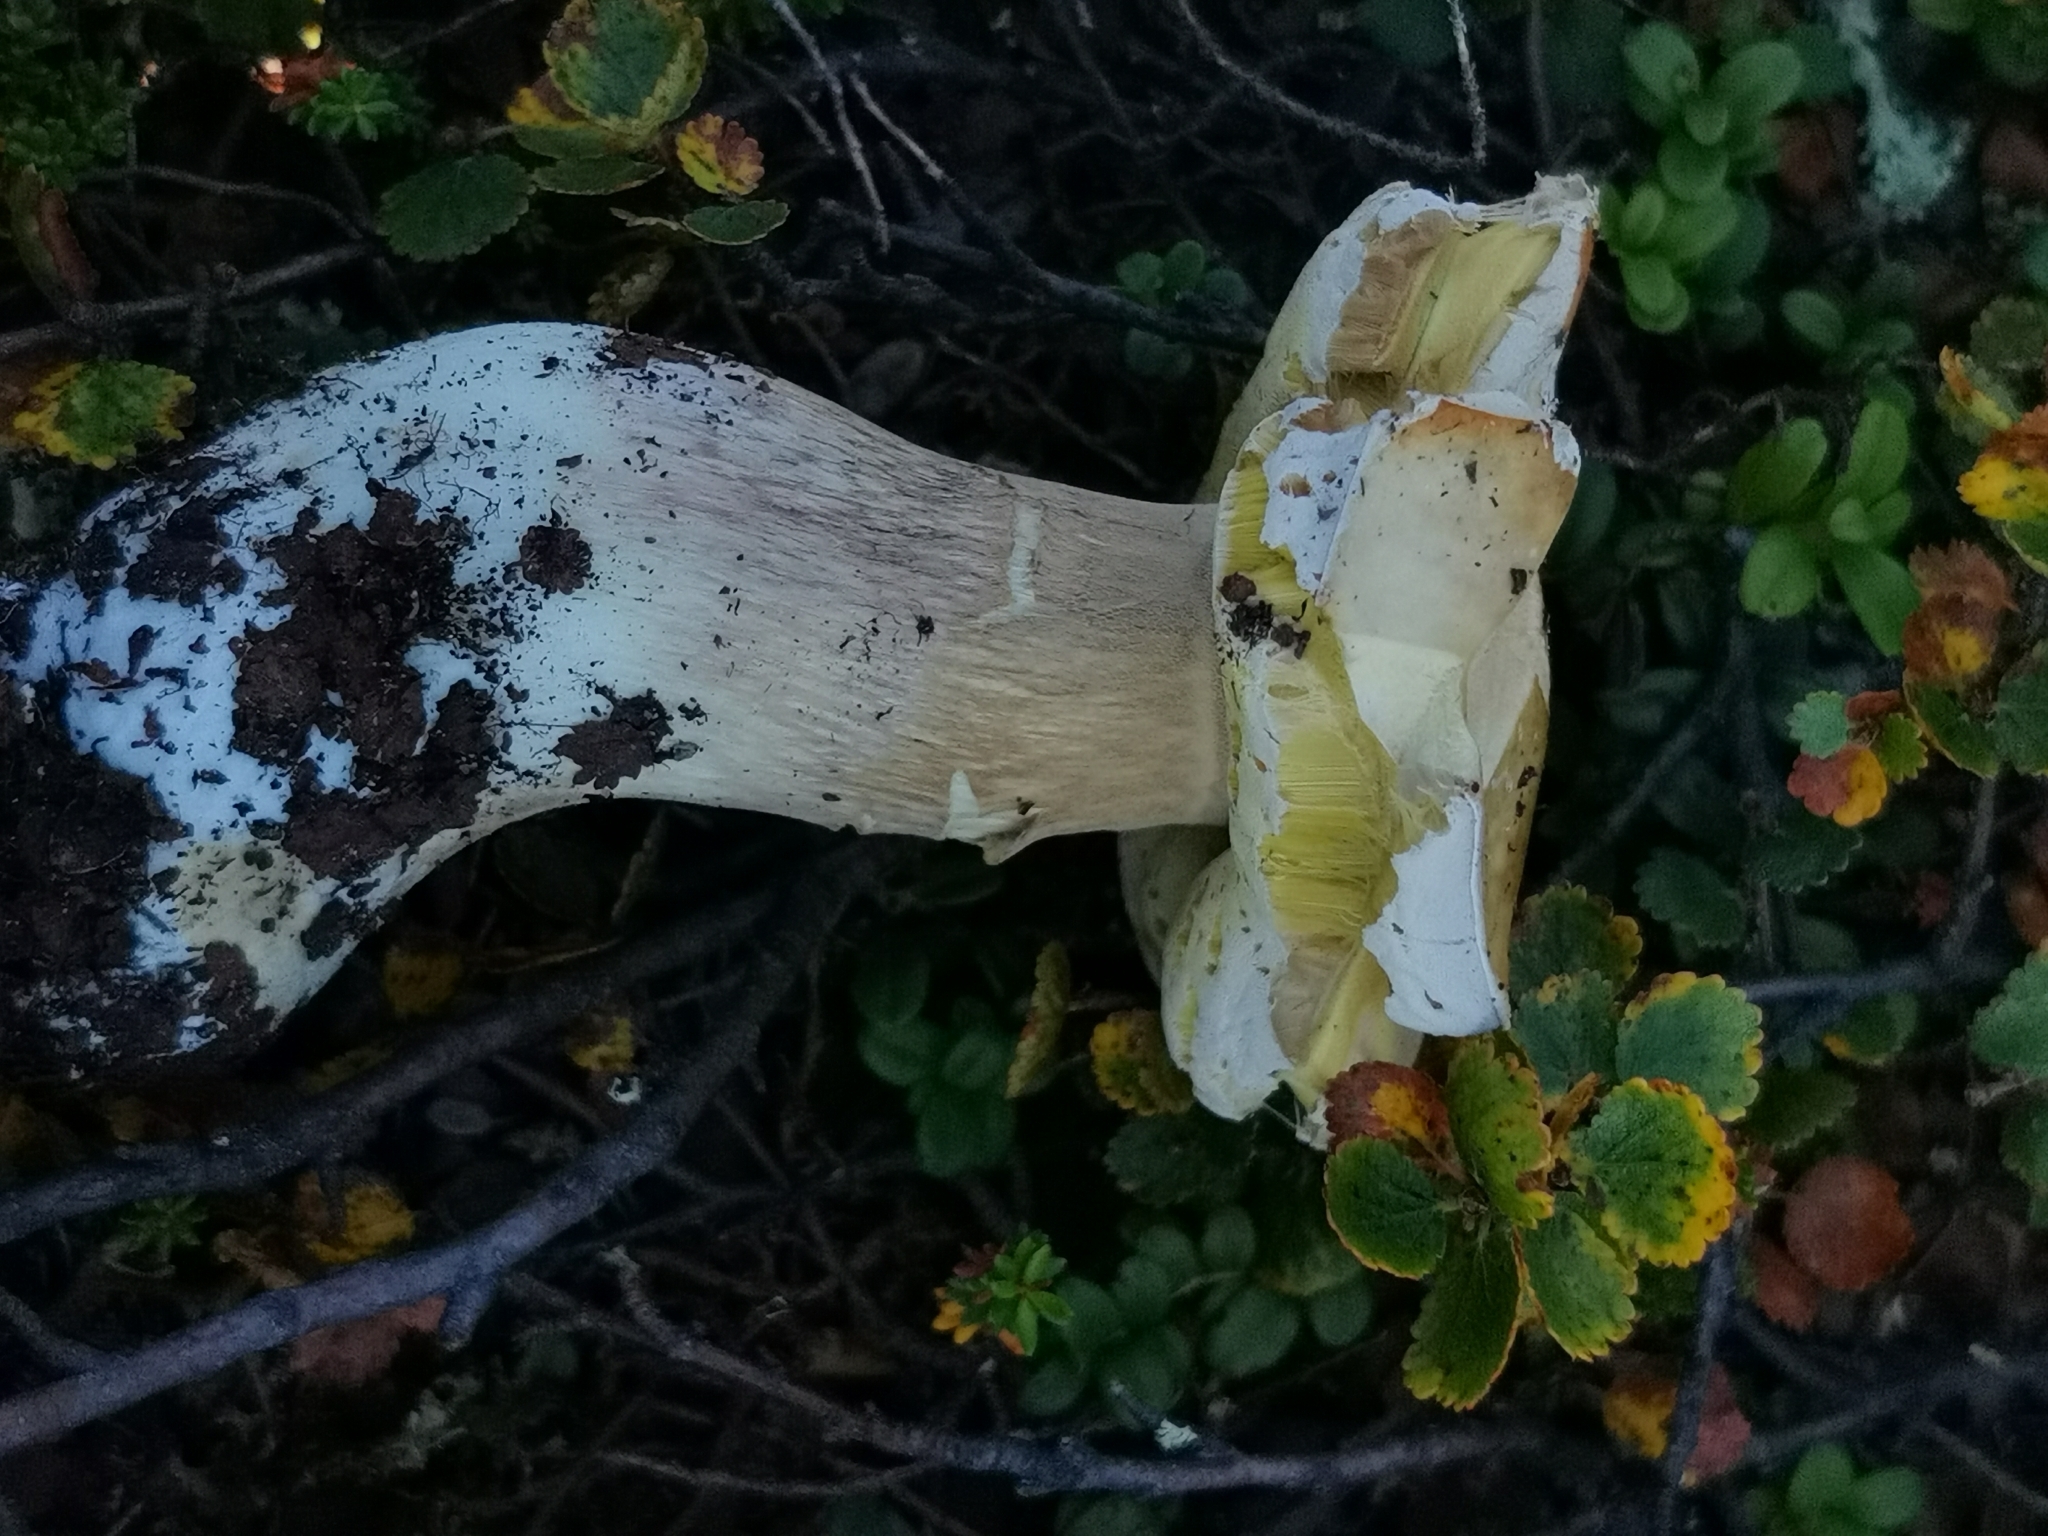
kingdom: Fungi
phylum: Basidiomycota
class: Agaricomycetes
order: Boletales
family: Boletaceae
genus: Boletus
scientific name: Boletus edulis
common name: Cep
